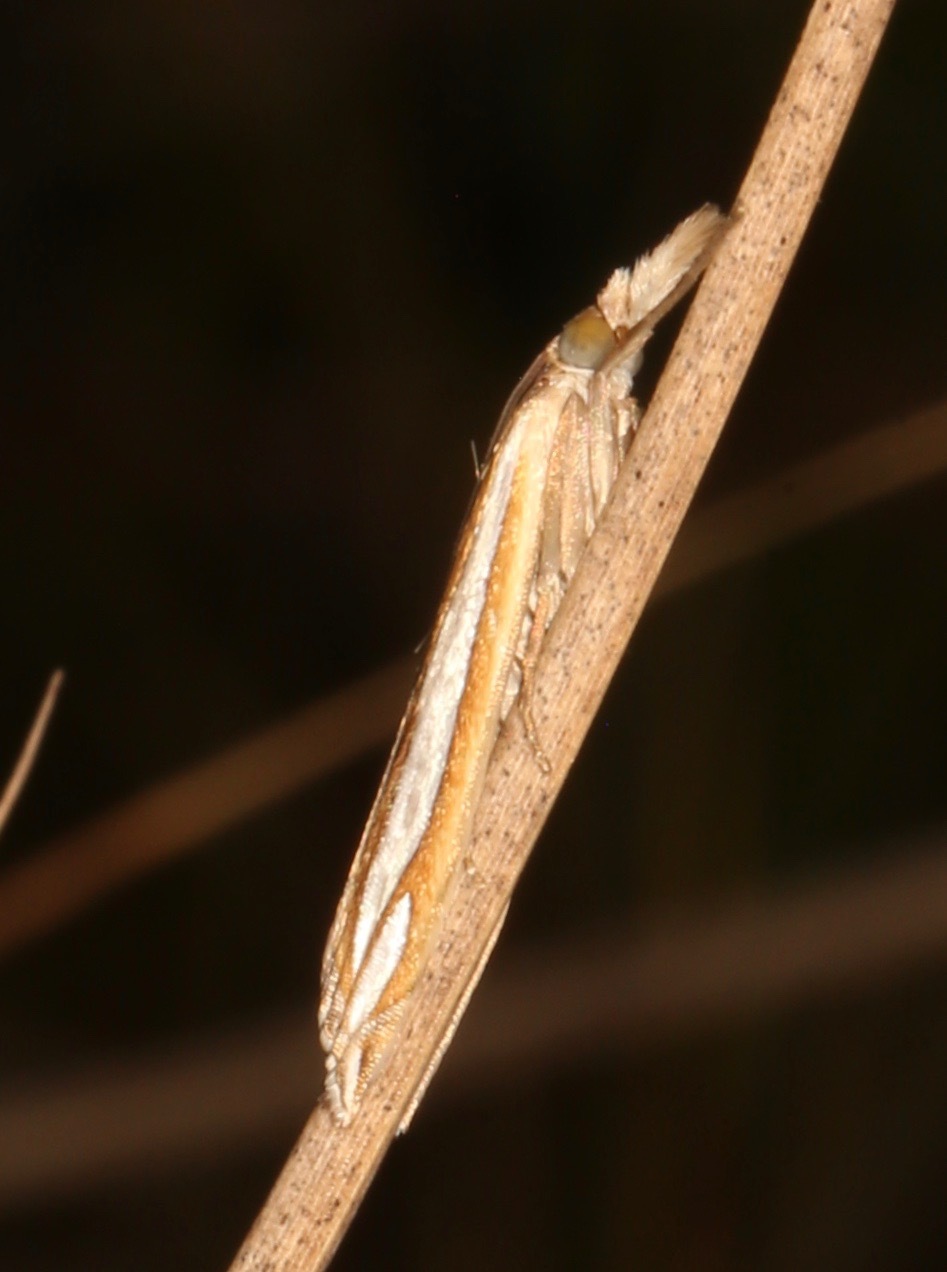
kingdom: Animalia
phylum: Arthropoda
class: Insecta
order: Lepidoptera
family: Crambidae
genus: Crambus
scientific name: Crambus satrapellus
